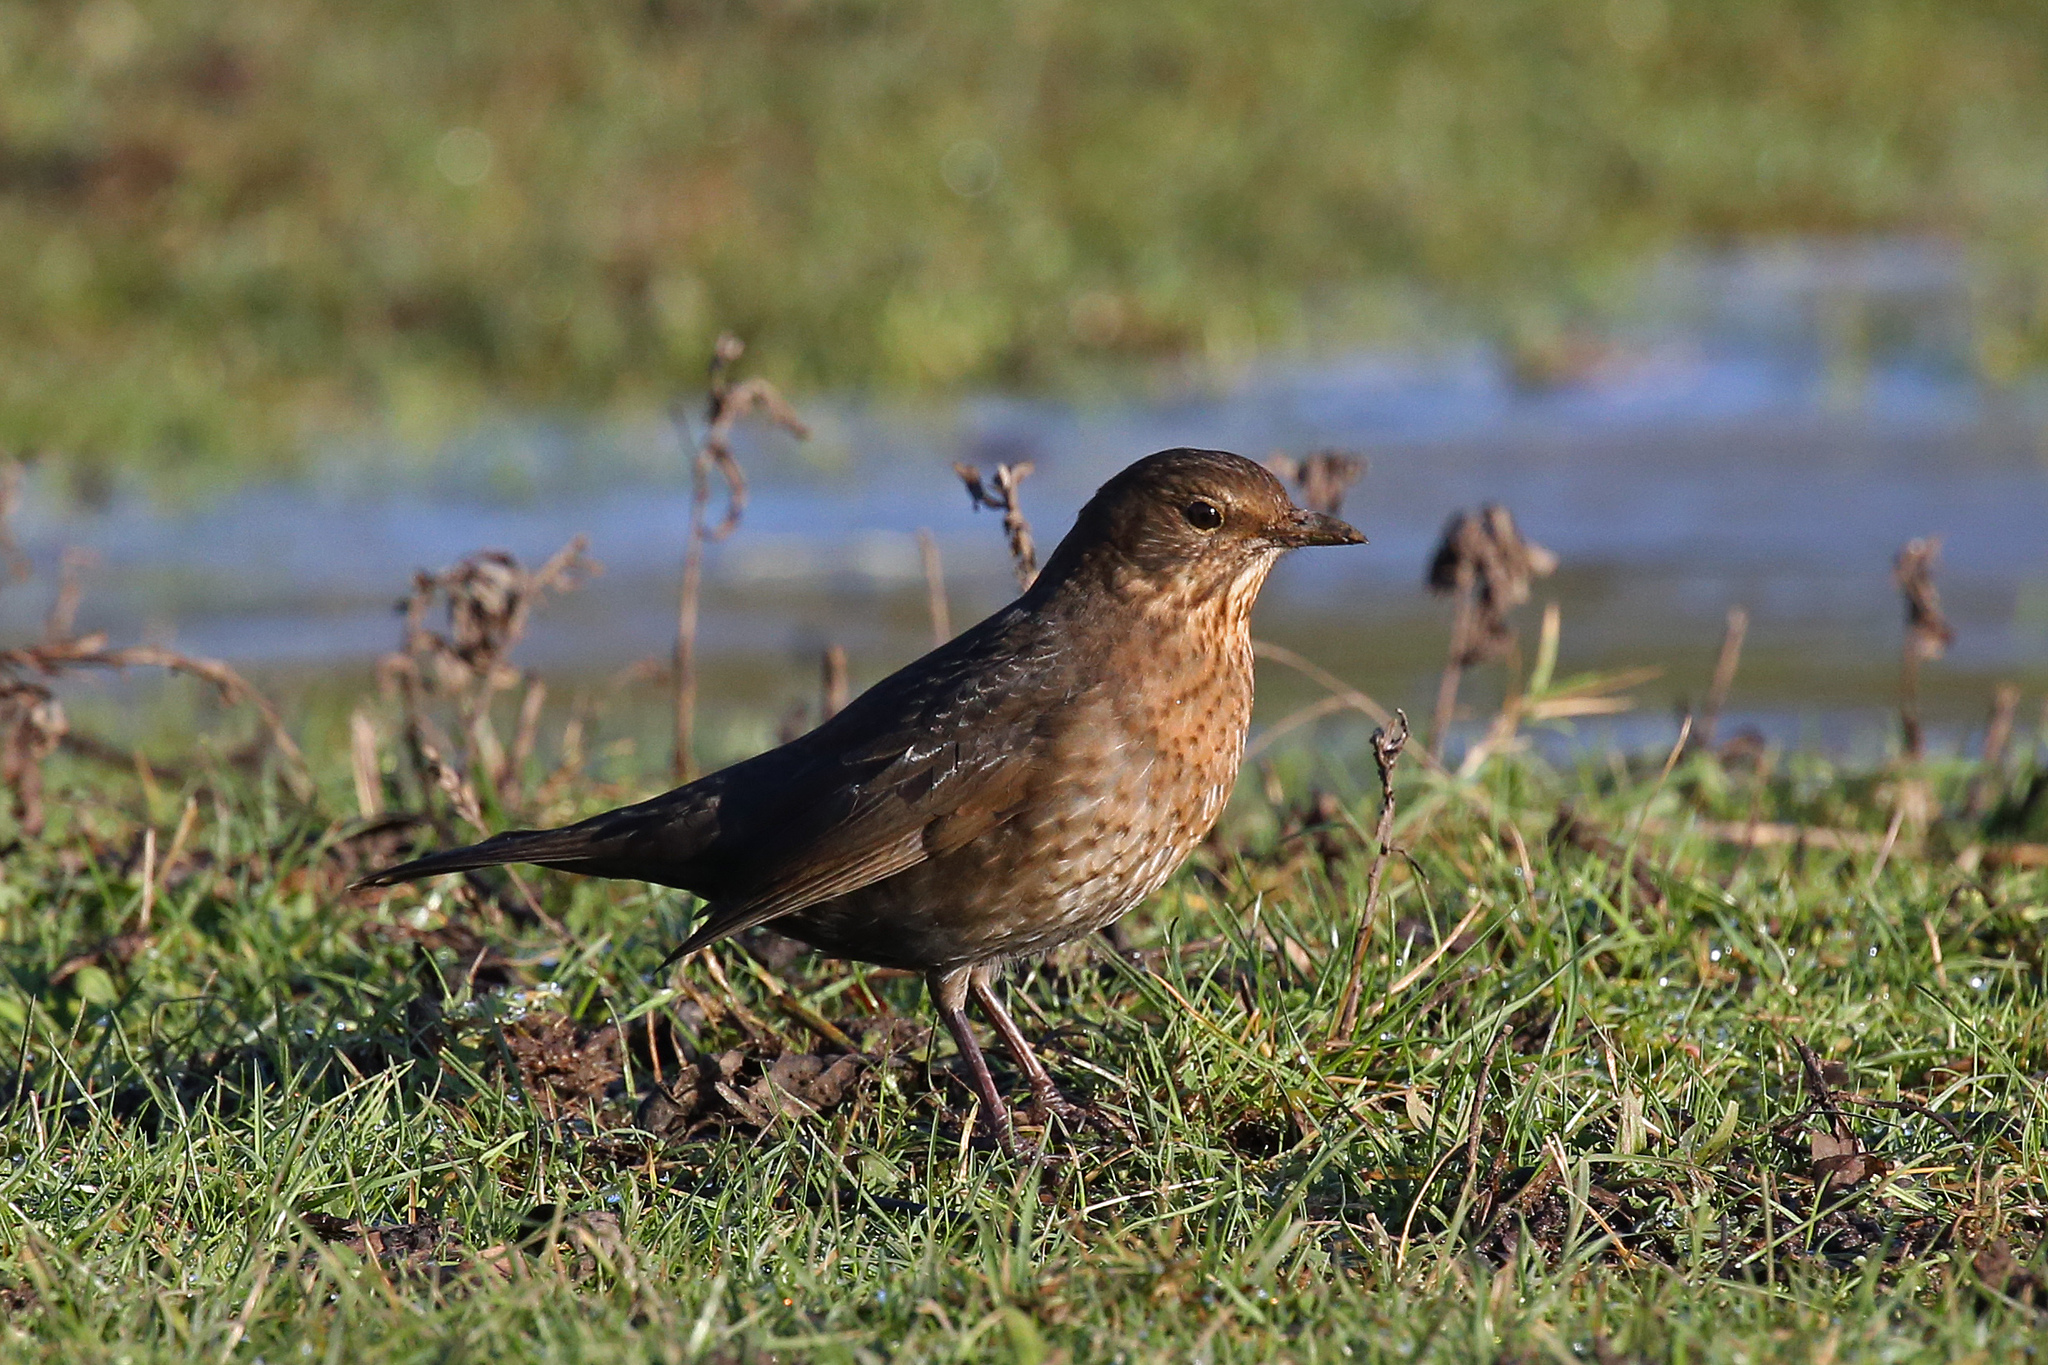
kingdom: Animalia
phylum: Chordata
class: Aves
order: Passeriformes
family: Turdidae
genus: Turdus
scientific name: Turdus merula
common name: Common blackbird
